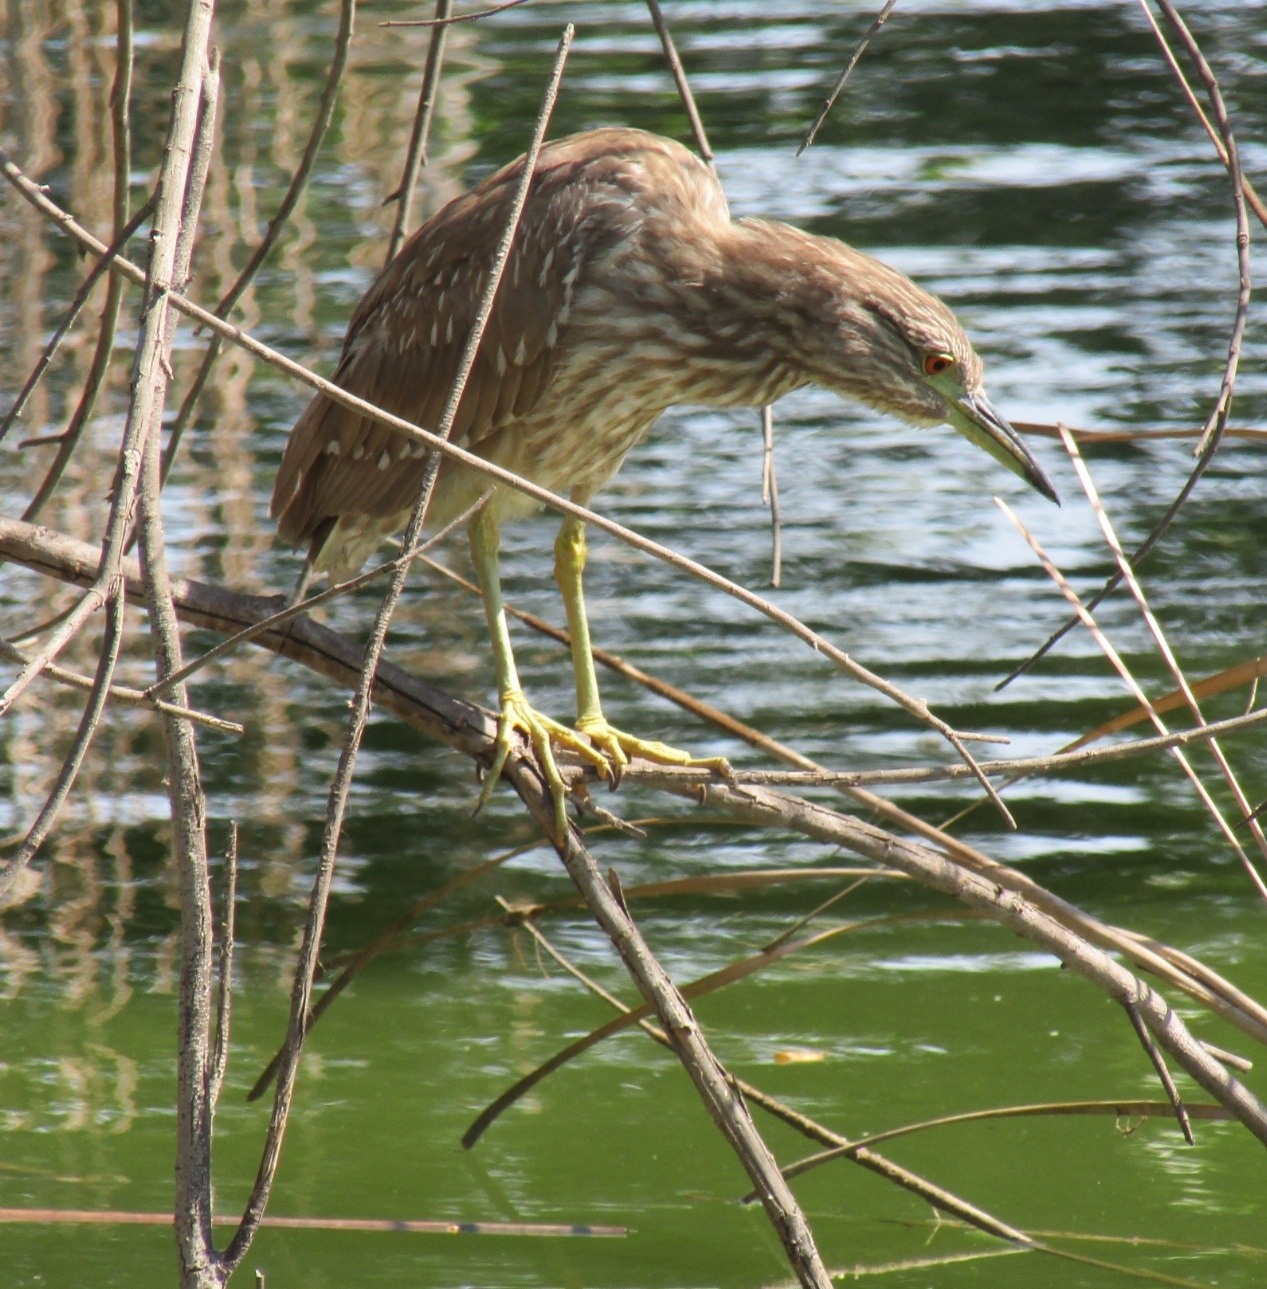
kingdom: Animalia
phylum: Chordata
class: Aves
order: Pelecaniformes
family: Ardeidae
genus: Nycticorax
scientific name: Nycticorax nycticorax
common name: Black-crowned night heron
